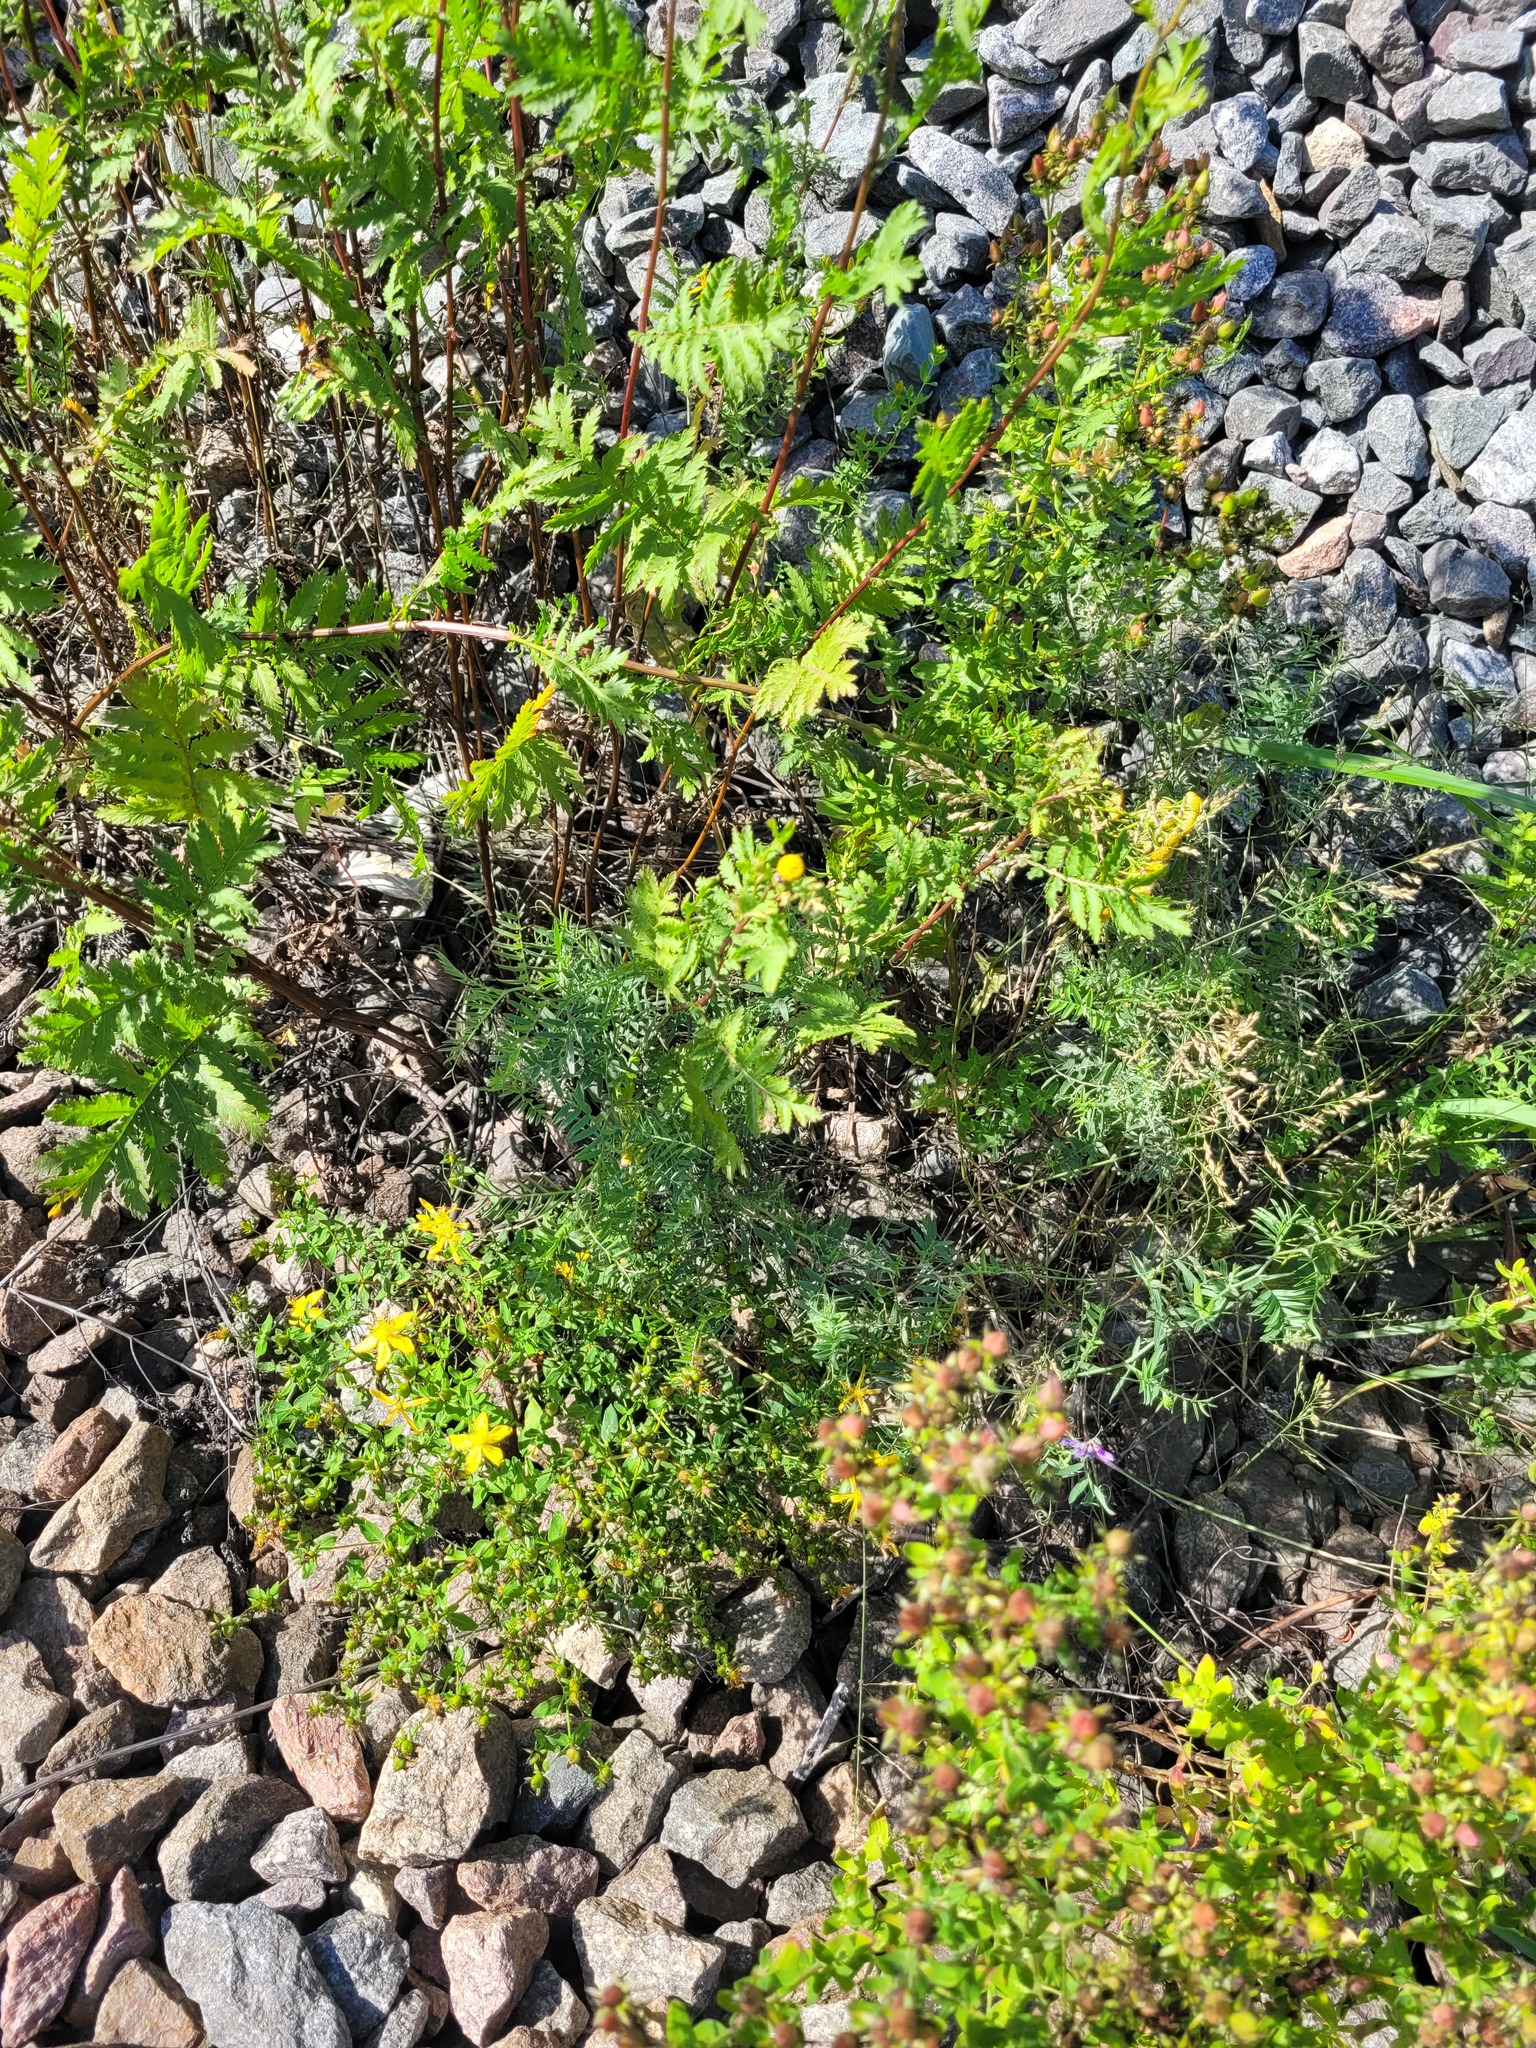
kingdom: Plantae
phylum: Tracheophyta
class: Magnoliopsida
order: Fabales
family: Fabaceae
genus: Vicia
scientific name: Vicia cracca
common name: Bird vetch
